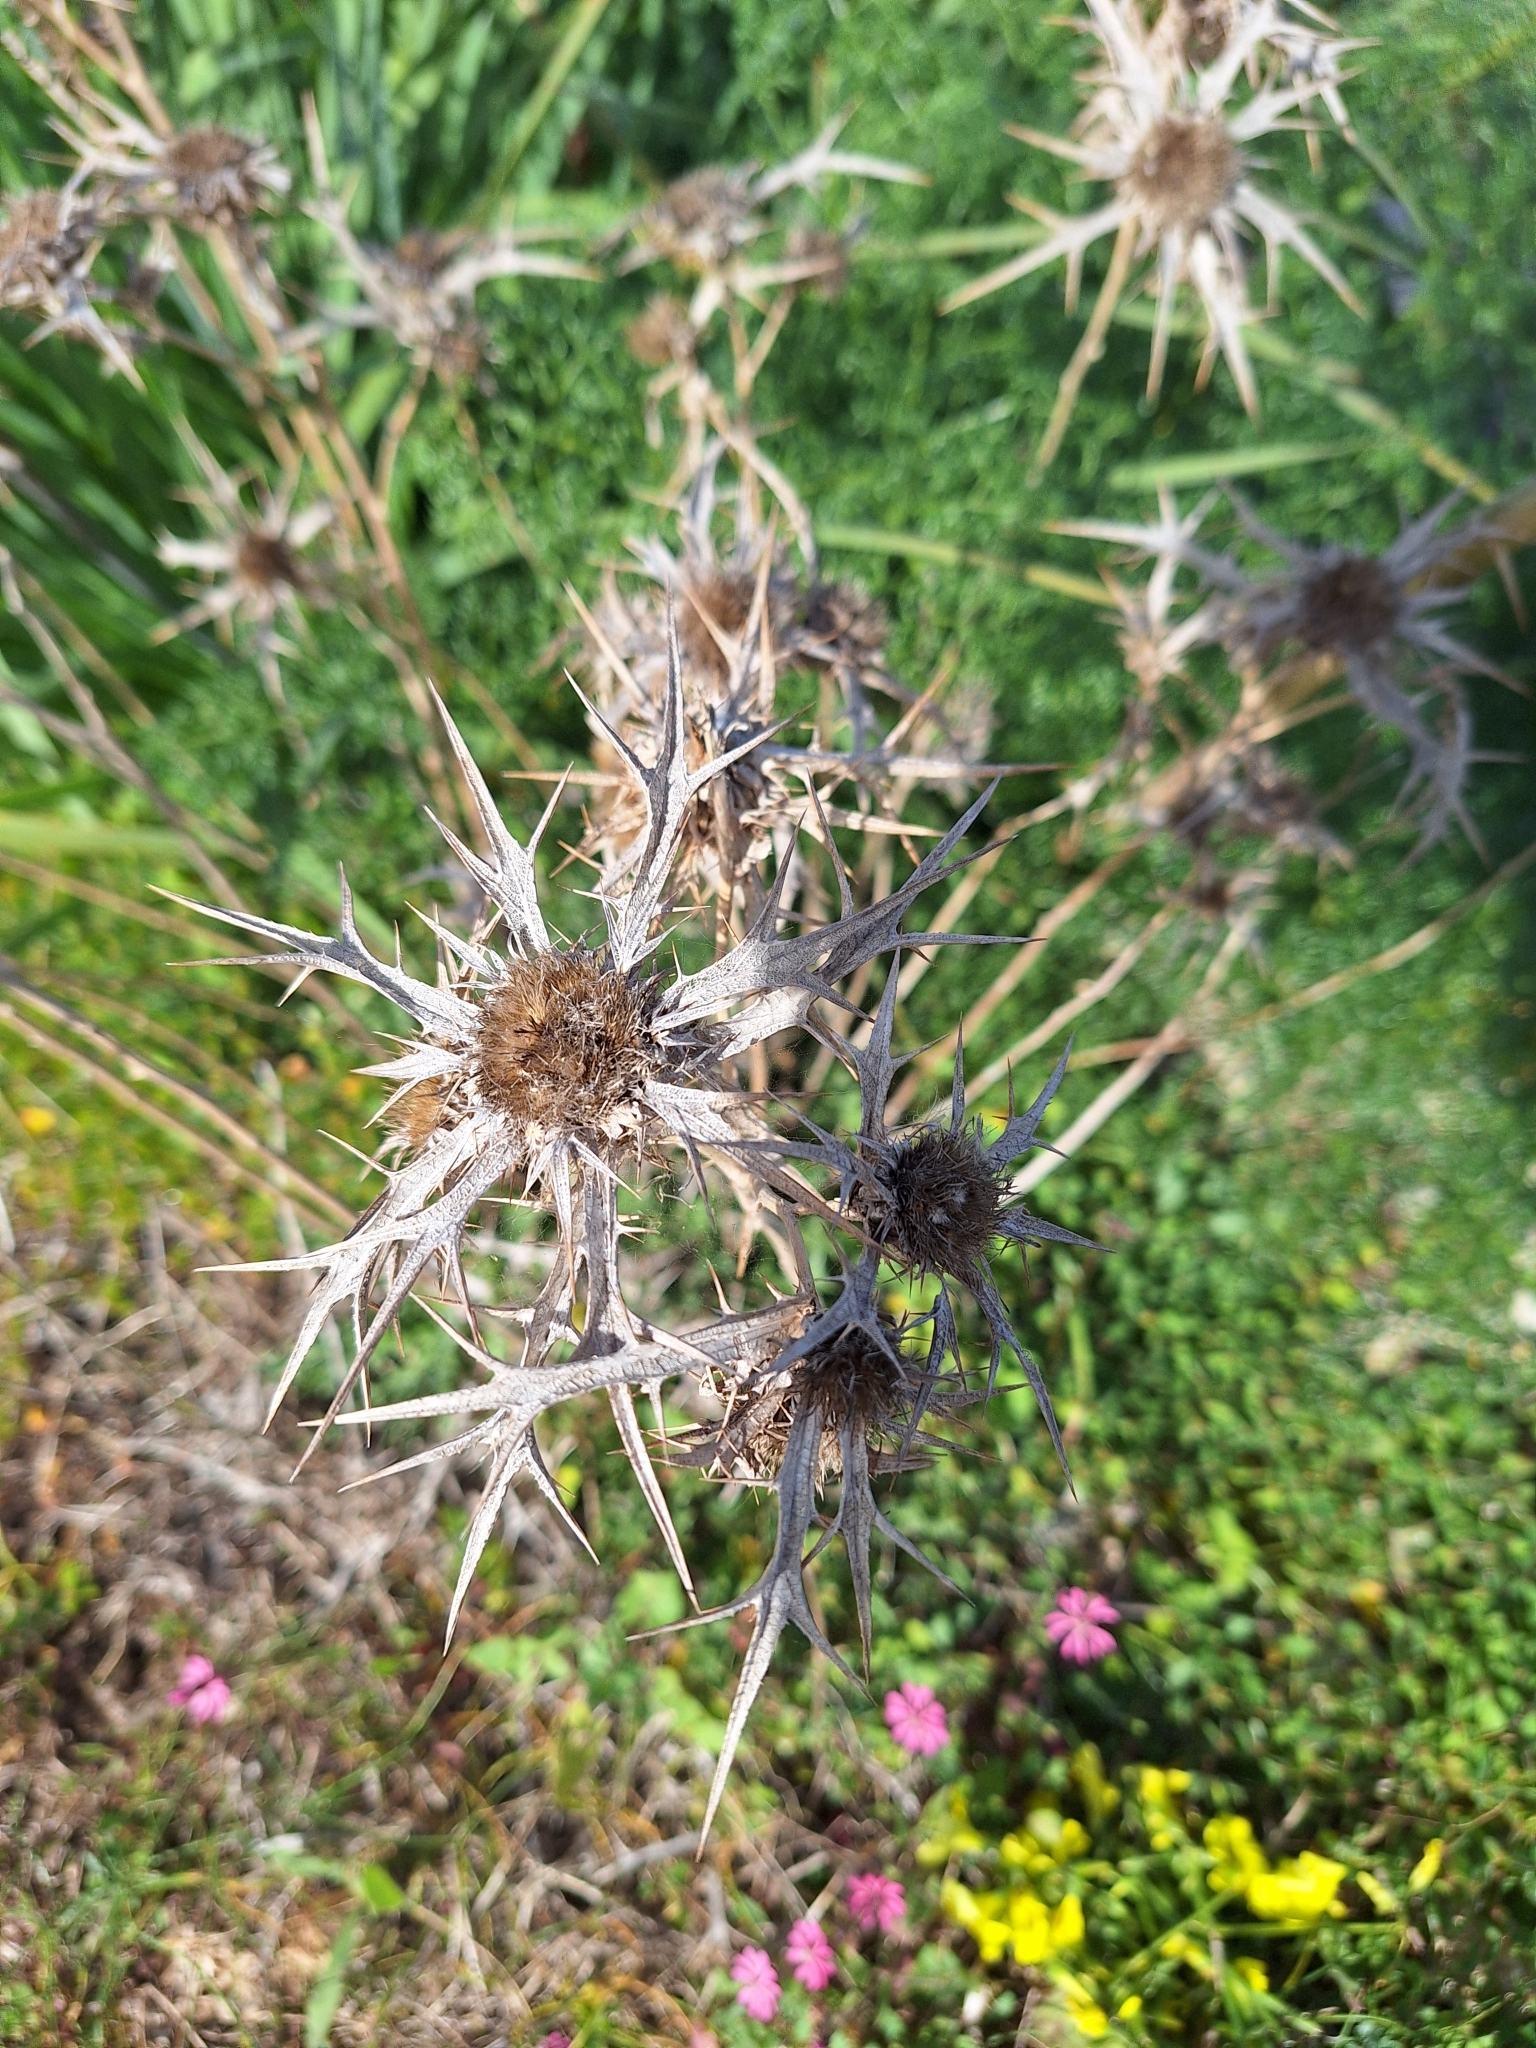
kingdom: Plantae
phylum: Tracheophyta
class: Magnoliopsida
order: Asterales
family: Asteraceae
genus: Carlina
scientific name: Carlina involucrata
